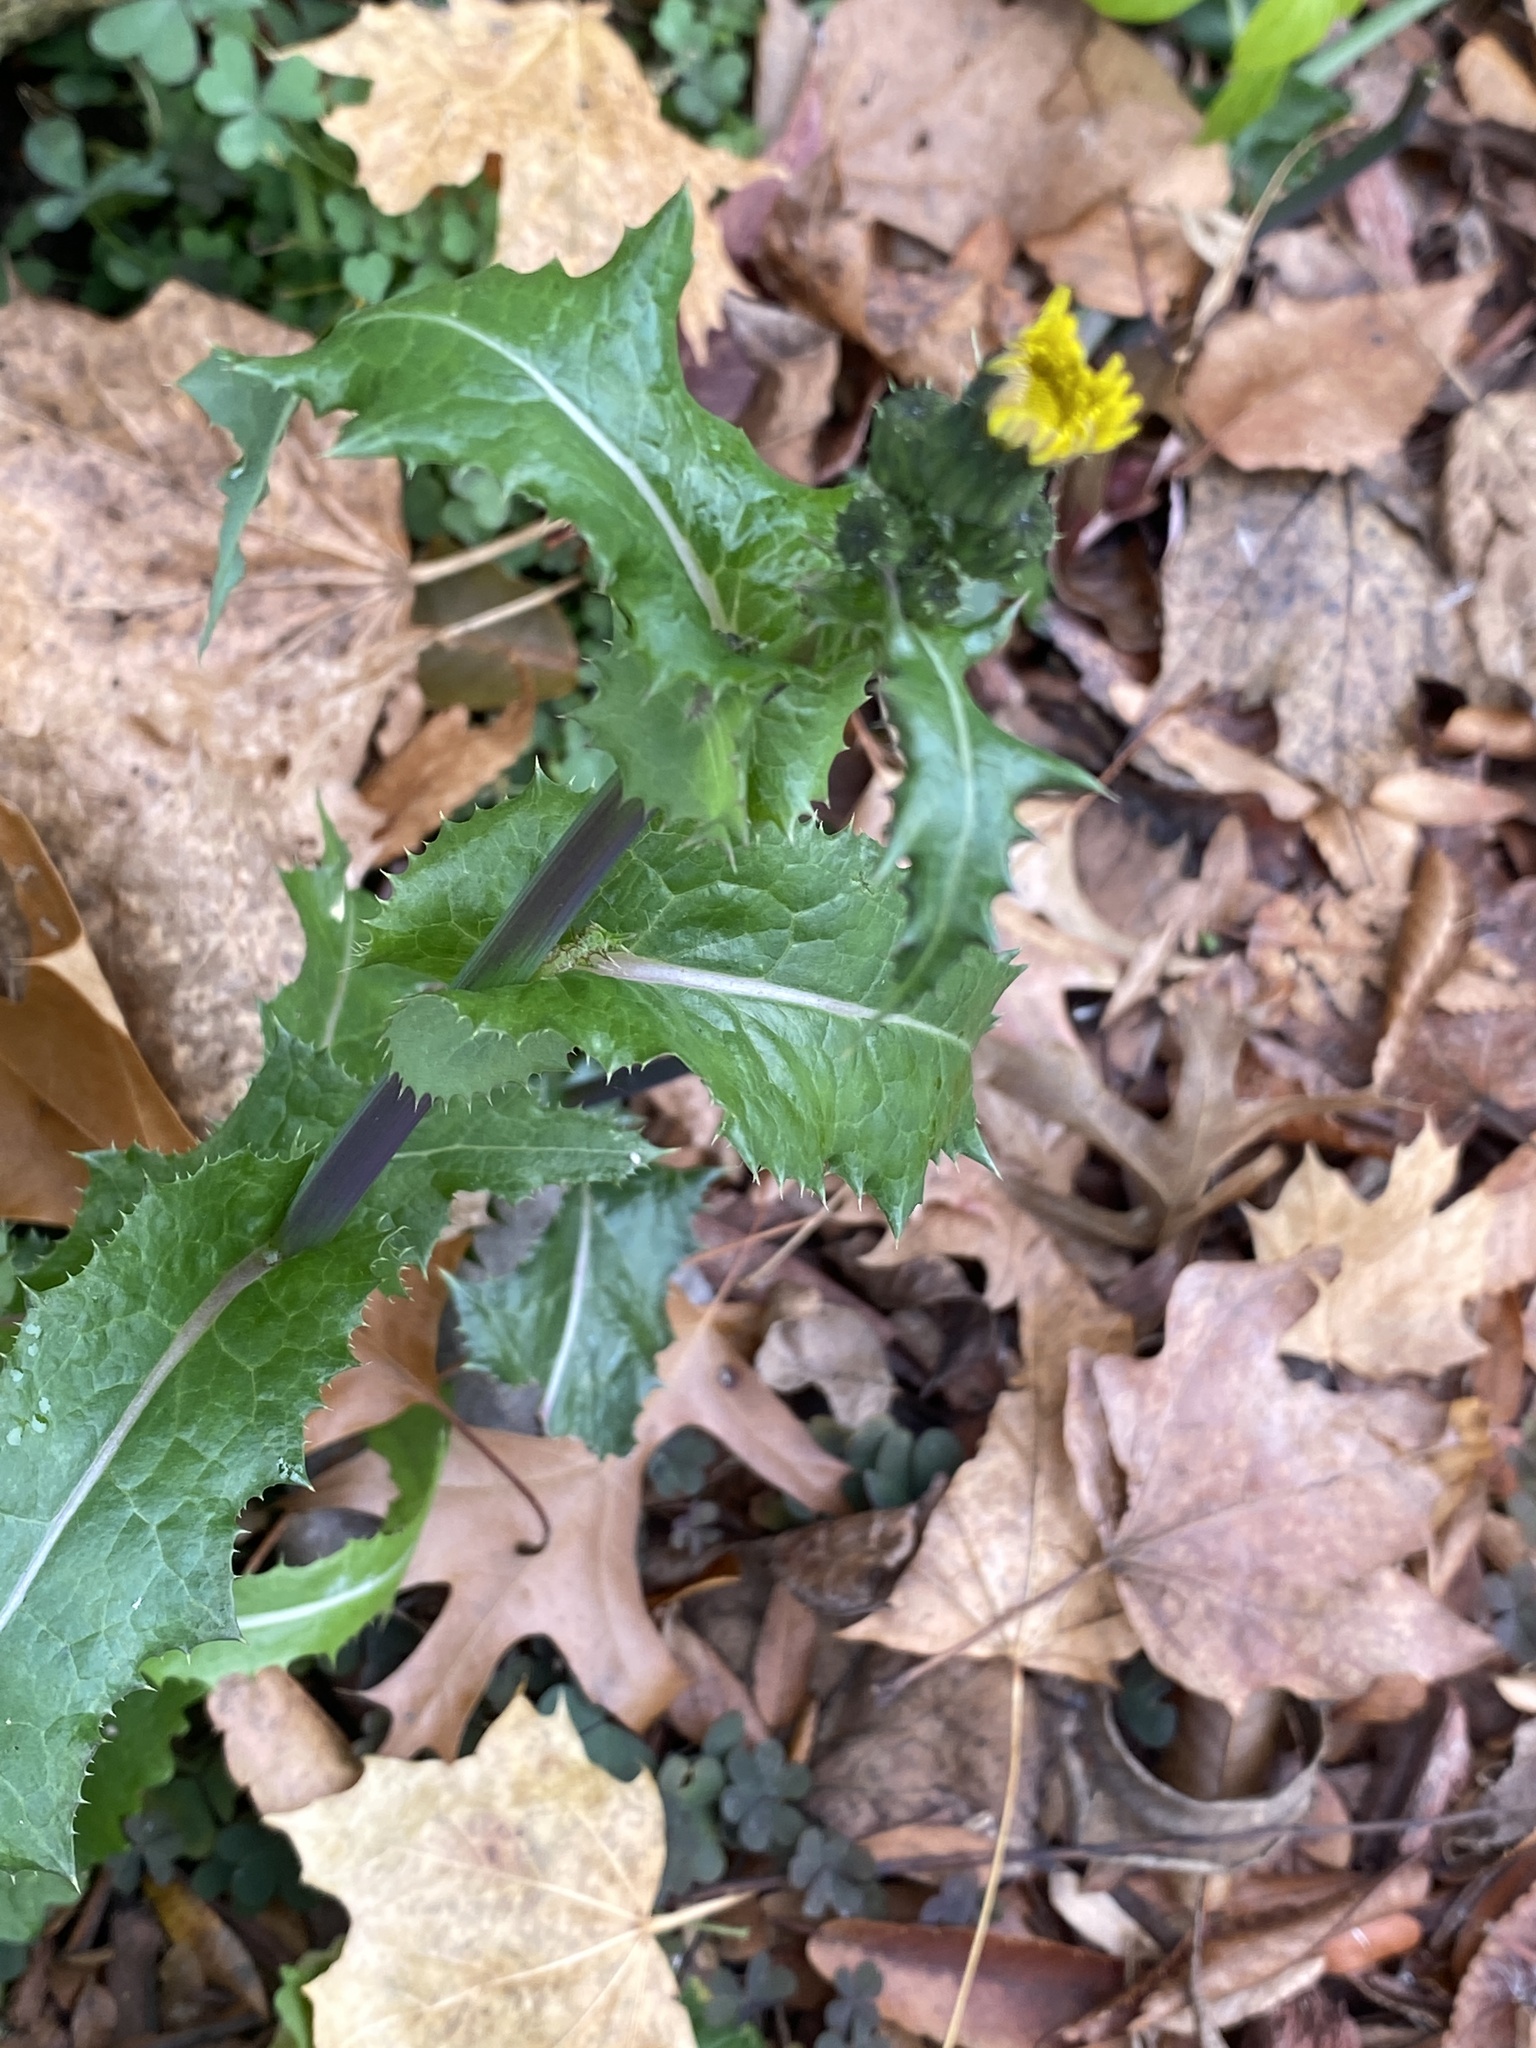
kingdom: Plantae
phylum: Tracheophyta
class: Magnoliopsida
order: Asterales
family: Asteraceae
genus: Sonchus
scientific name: Sonchus asper
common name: Prickly sow-thistle
